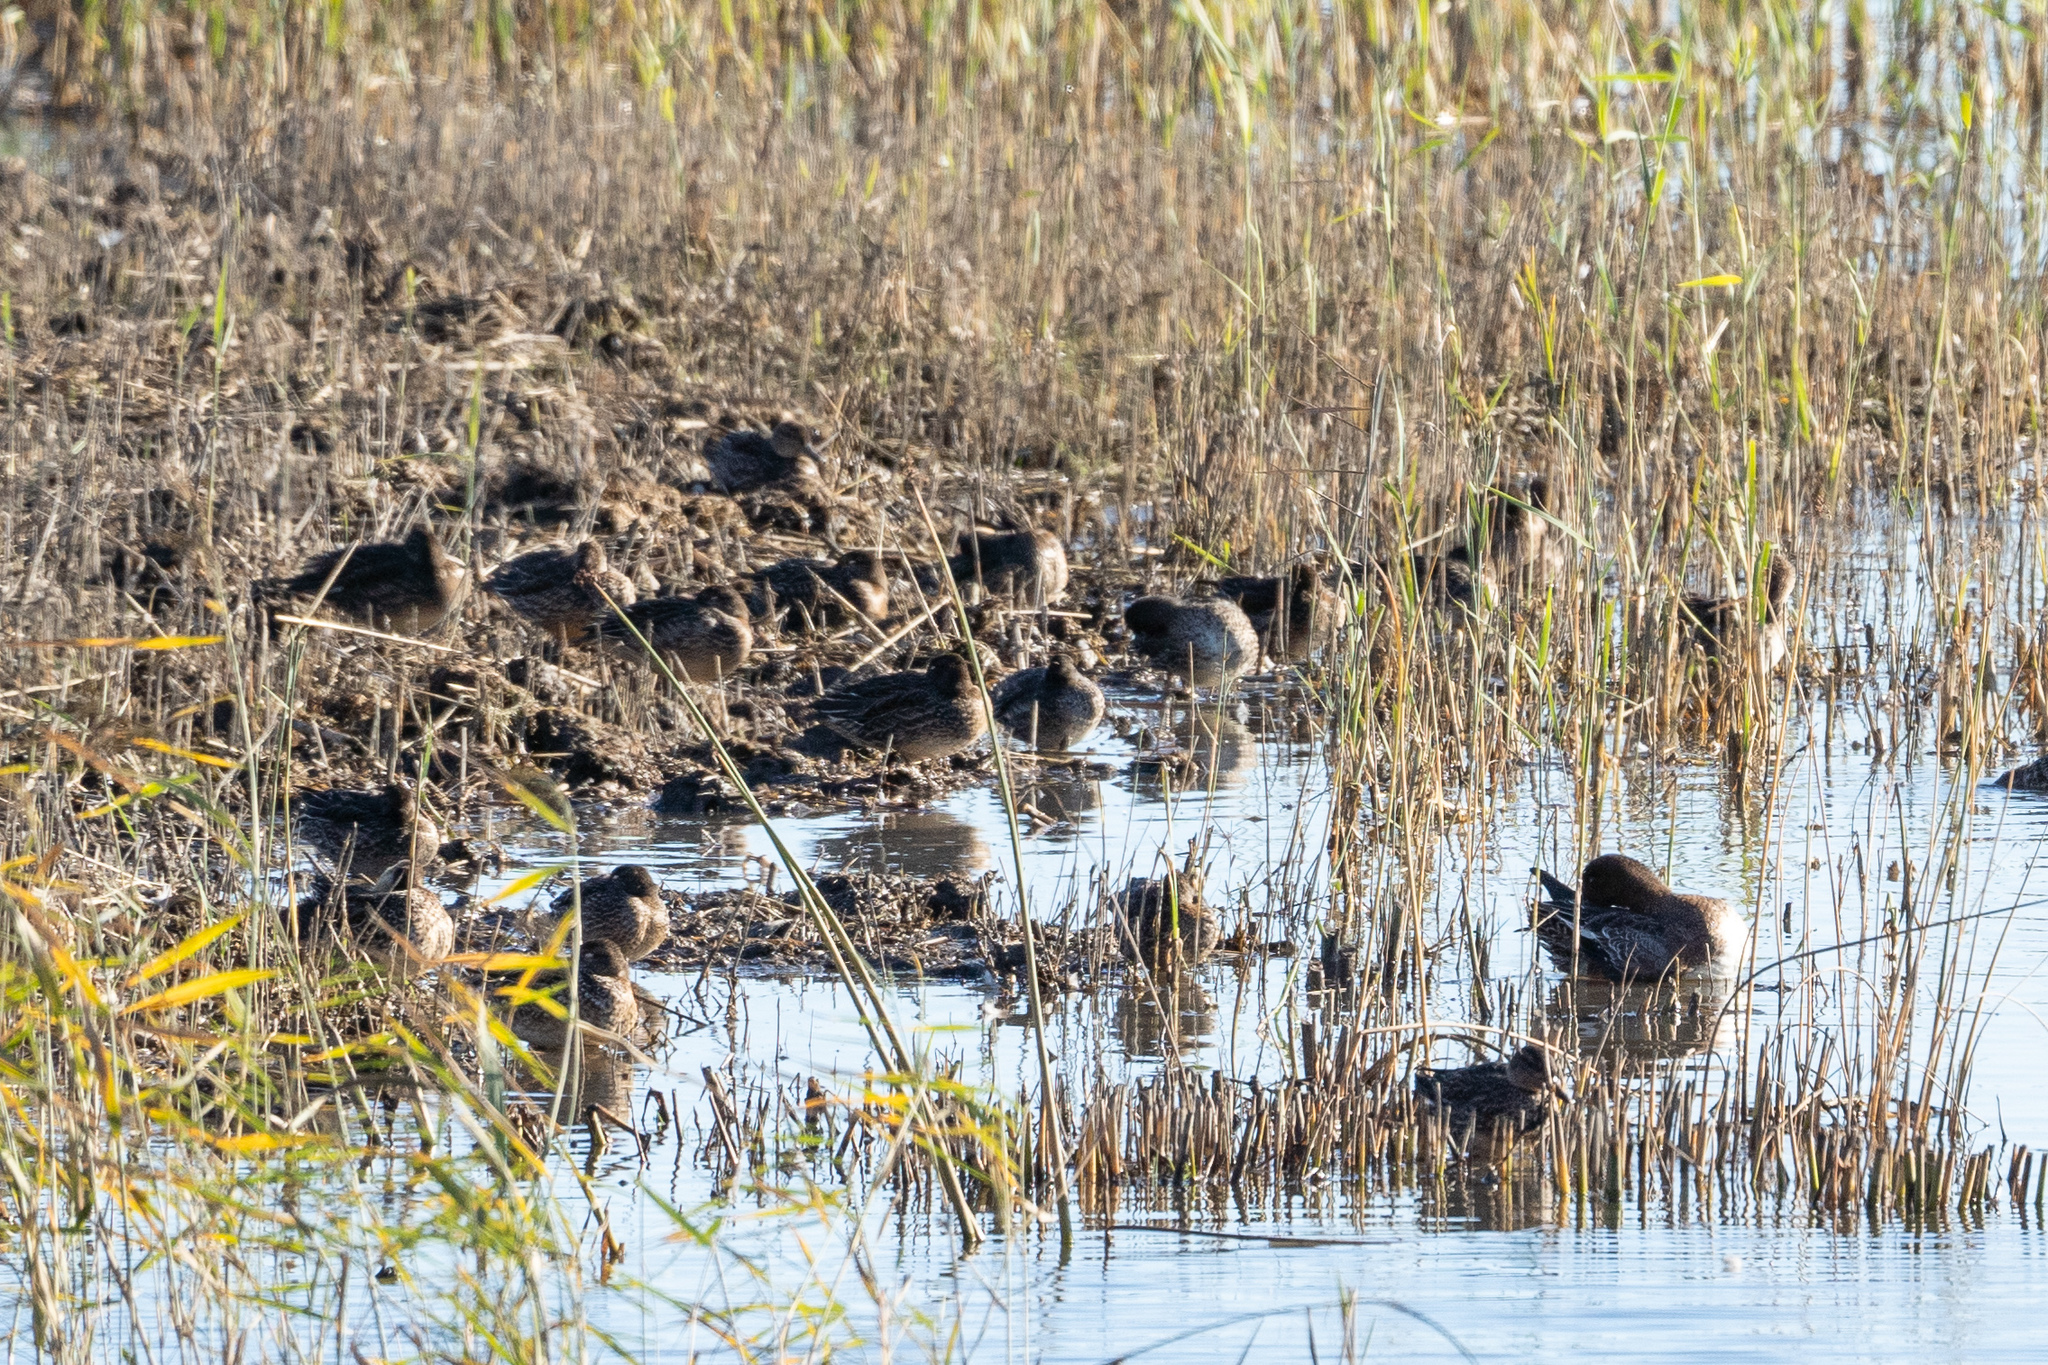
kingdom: Animalia
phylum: Chordata
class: Aves
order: Anseriformes
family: Anatidae
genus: Anas
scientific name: Anas crecca
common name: Eurasian teal
